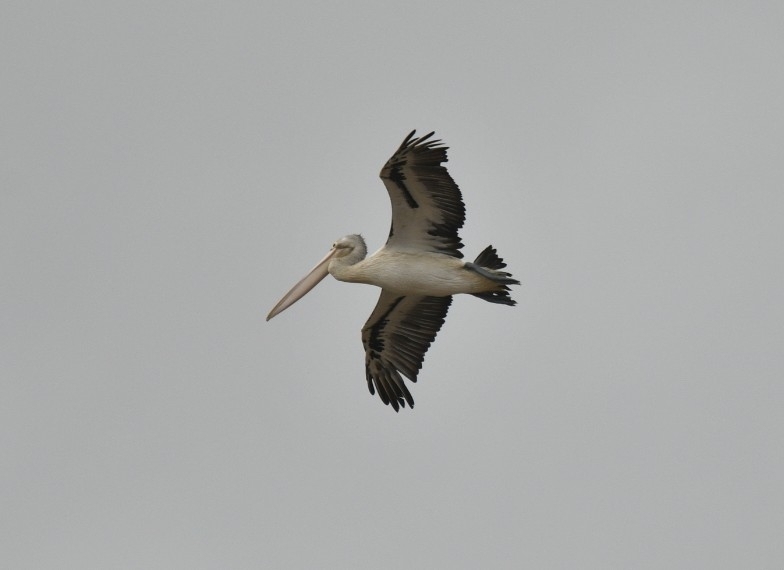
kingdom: Animalia
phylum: Chordata
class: Aves
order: Pelecaniformes
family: Pelecanidae
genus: Pelecanus
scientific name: Pelecanus conspicillatus
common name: Australian pelican
